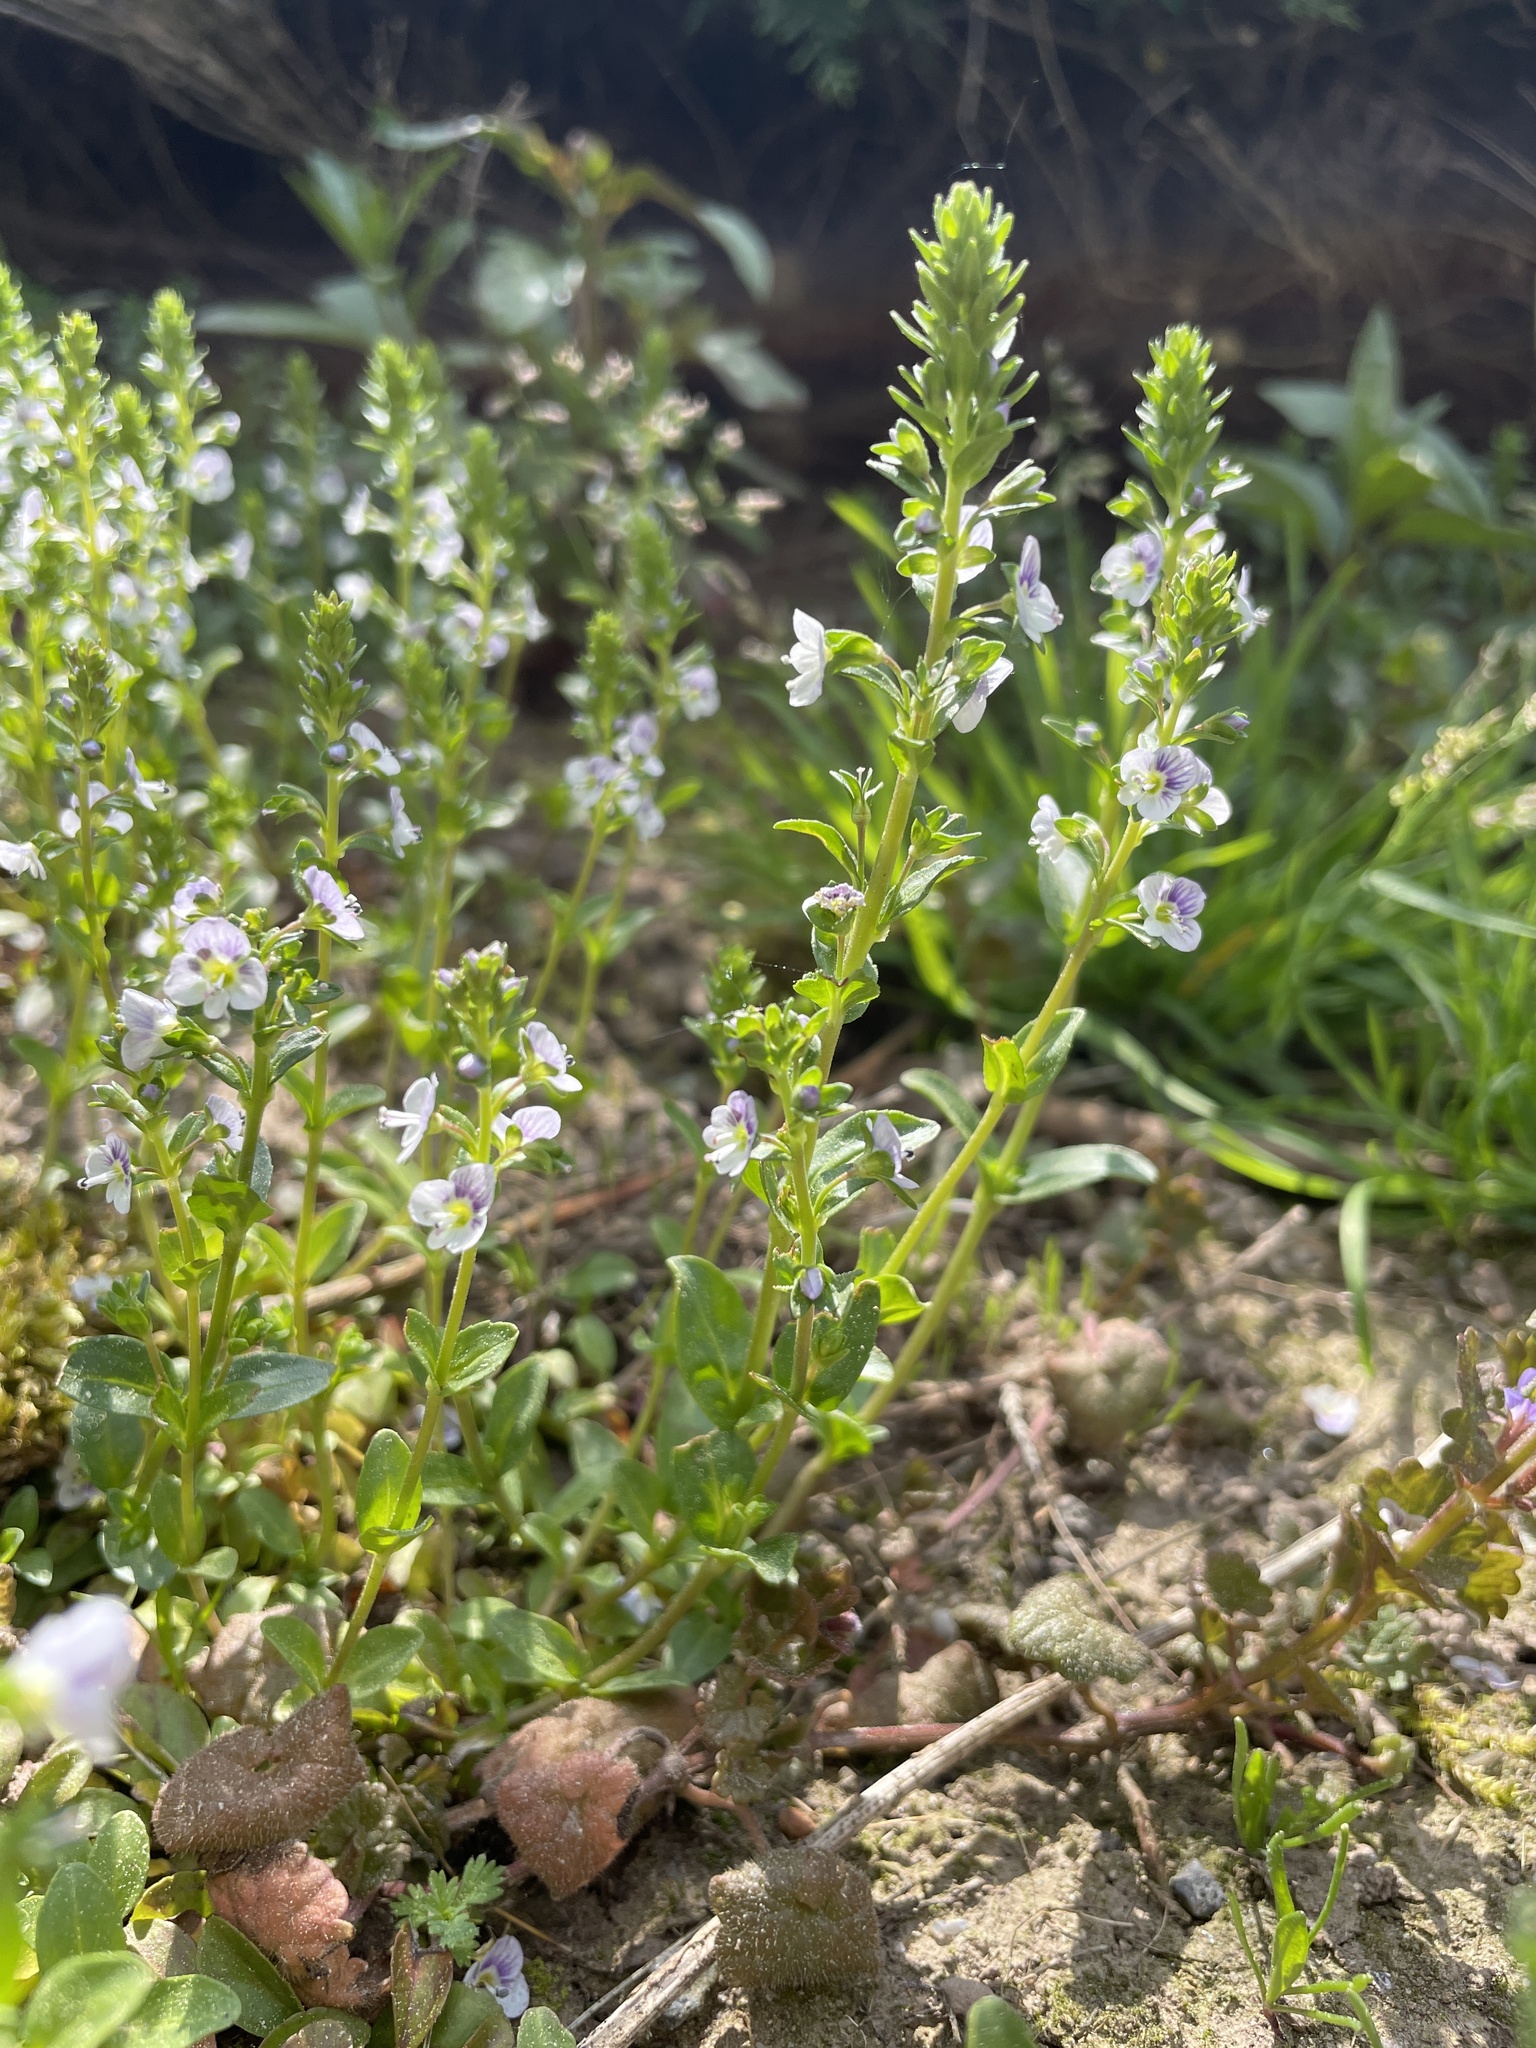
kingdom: Plantae
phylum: Tracheophyta
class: Magnoliopsida
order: Lamiales
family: Plantaginaceae
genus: Veronica
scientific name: Veronica serpyllifolia
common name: Thyme-leaved speedwell
